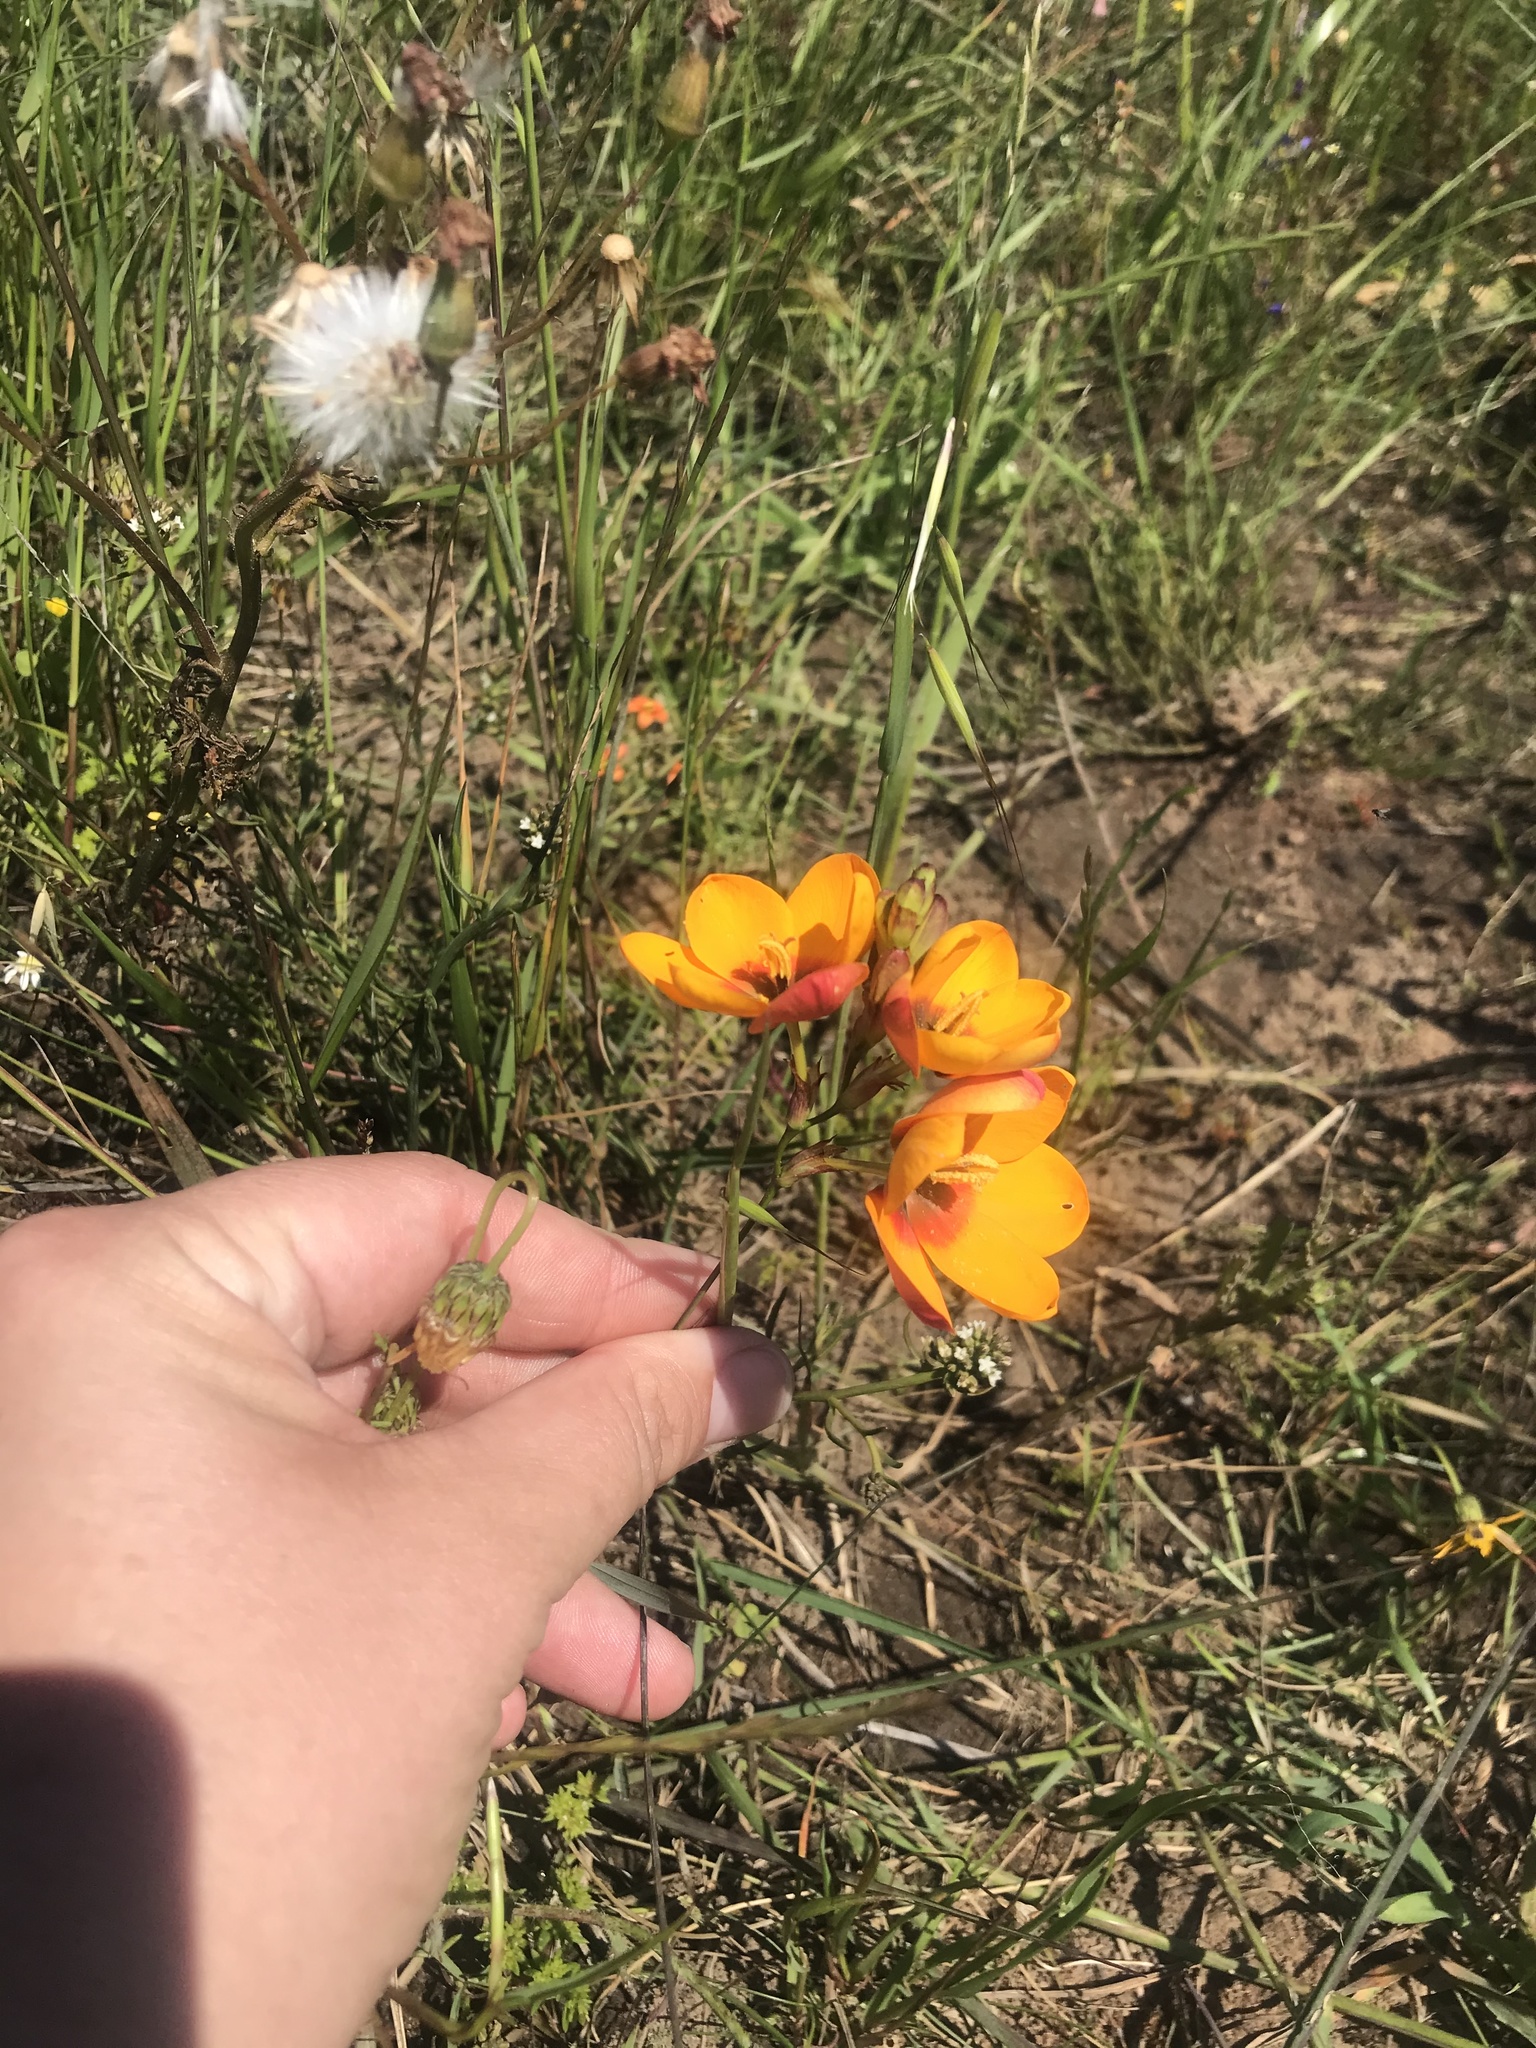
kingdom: Plantae
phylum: Tracheophyta
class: Liliopsida
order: Asparagales
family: Iridaceae
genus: Ixia
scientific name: Ixia curta
